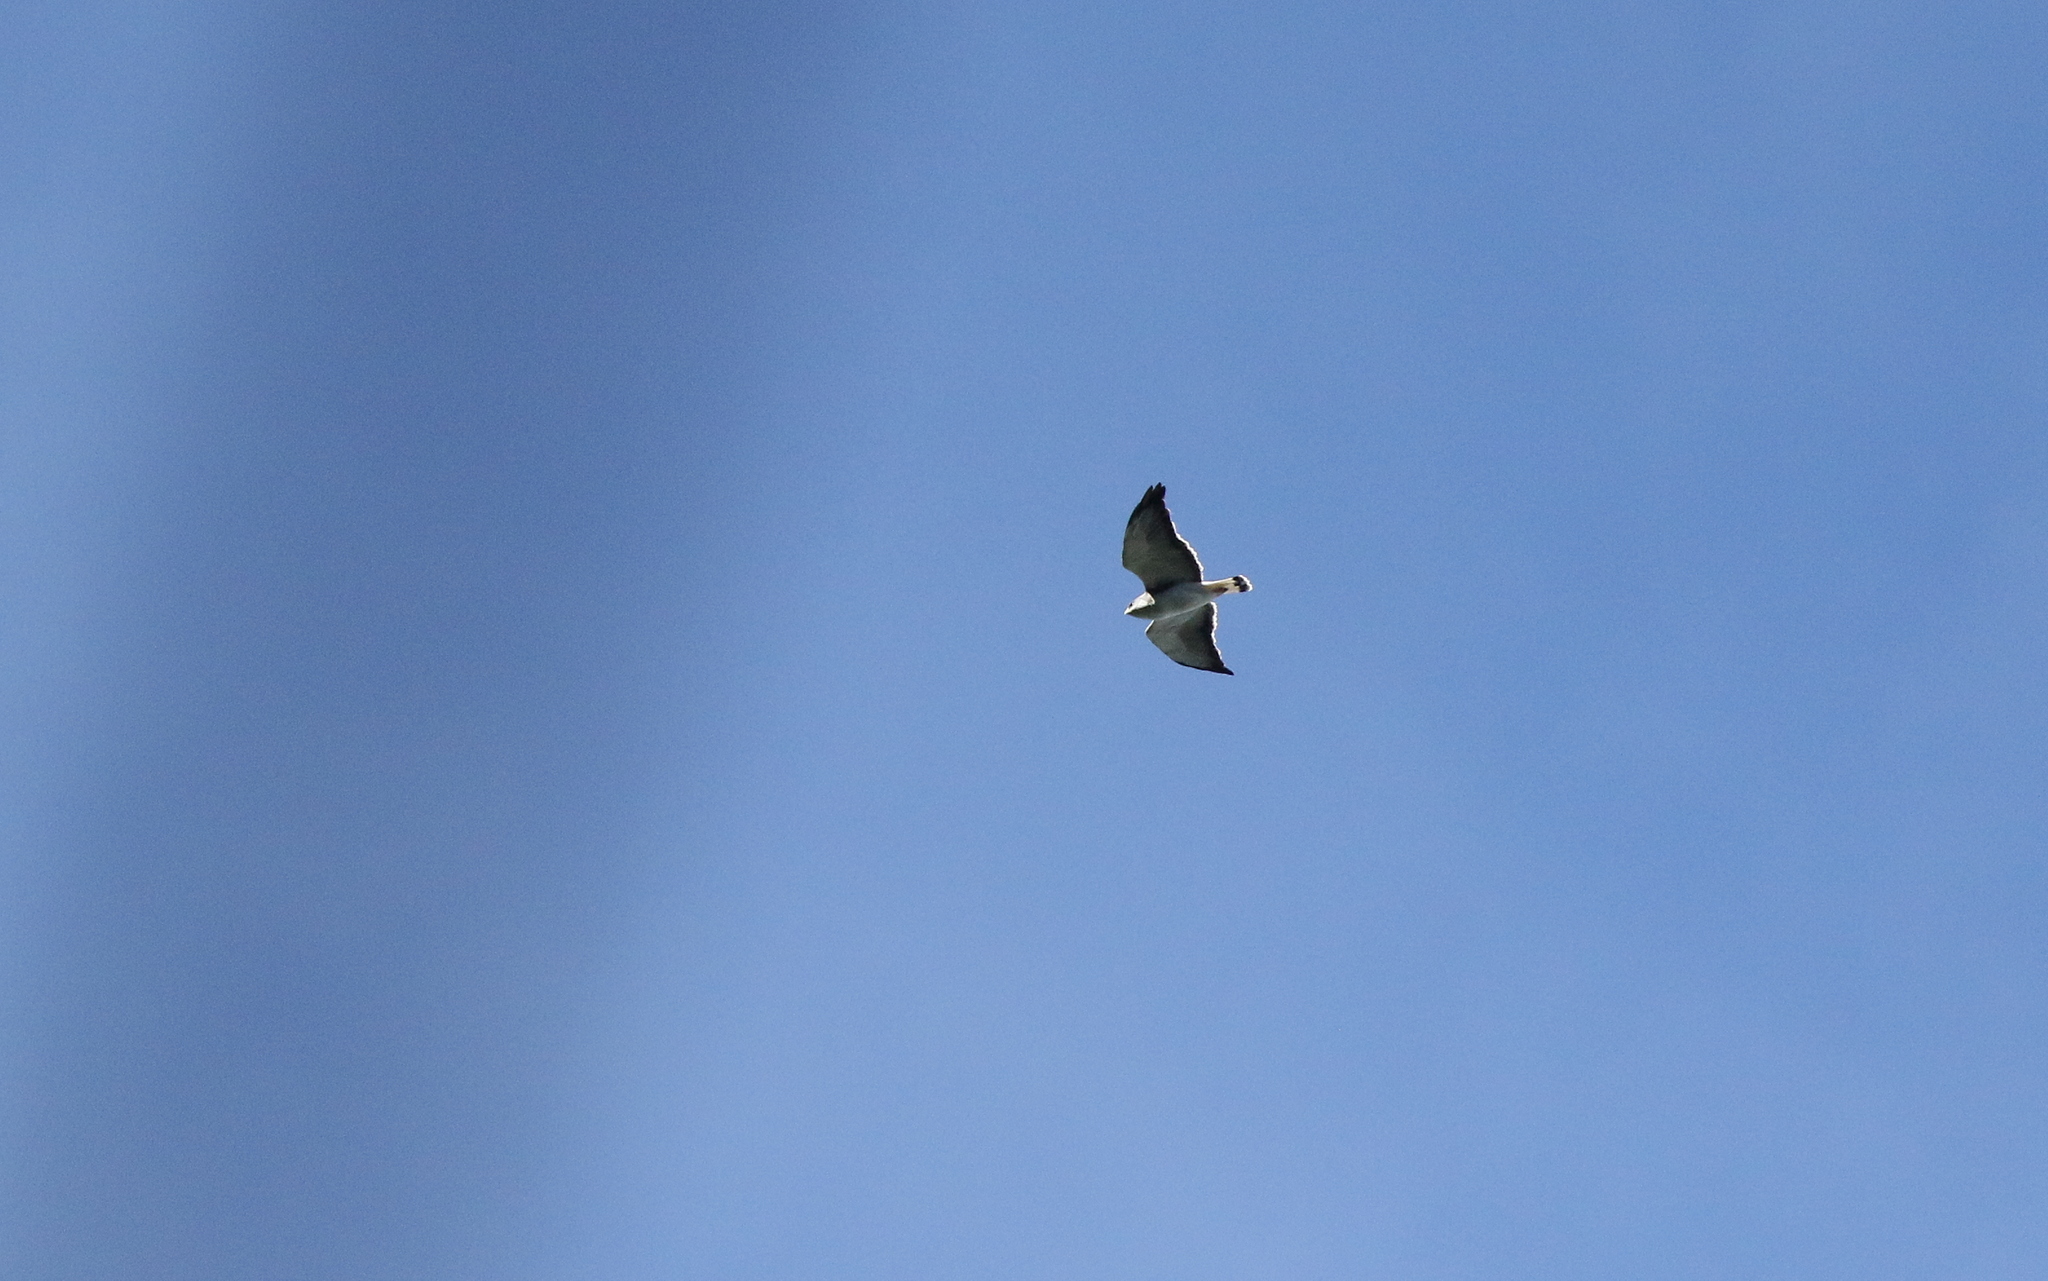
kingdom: Animalia
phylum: Chordata
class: Aves
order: Accipitriformes
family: Accipitridae
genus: Buteo
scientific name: Buteo polyosoma
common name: Variable hawk
